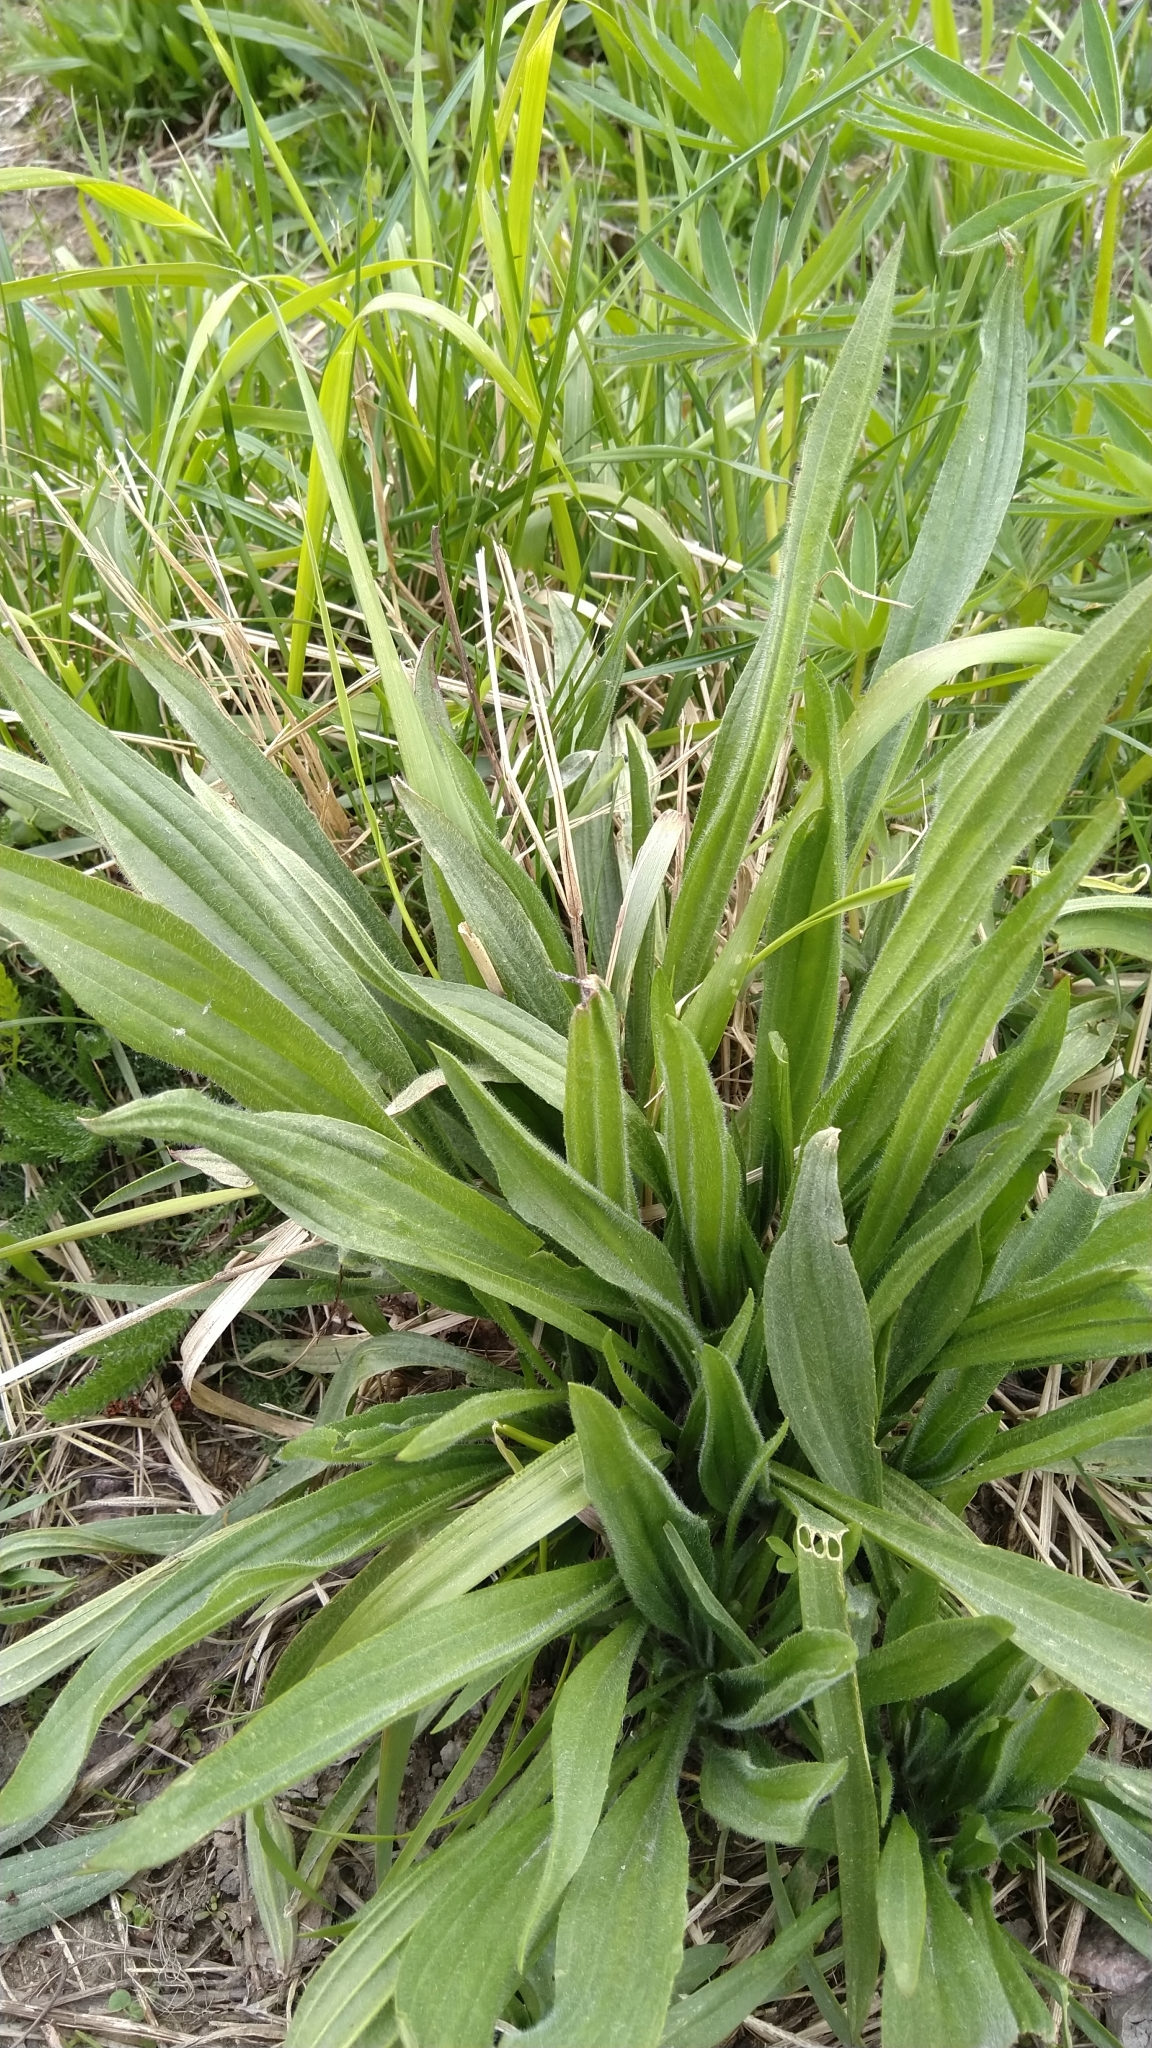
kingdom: Plantae
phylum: Tracheophyta
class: Magnoliopsida
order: Lamiales
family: Plantaginaceae
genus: Plantago
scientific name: Plantago lanceolata
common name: Ribwort plantain
